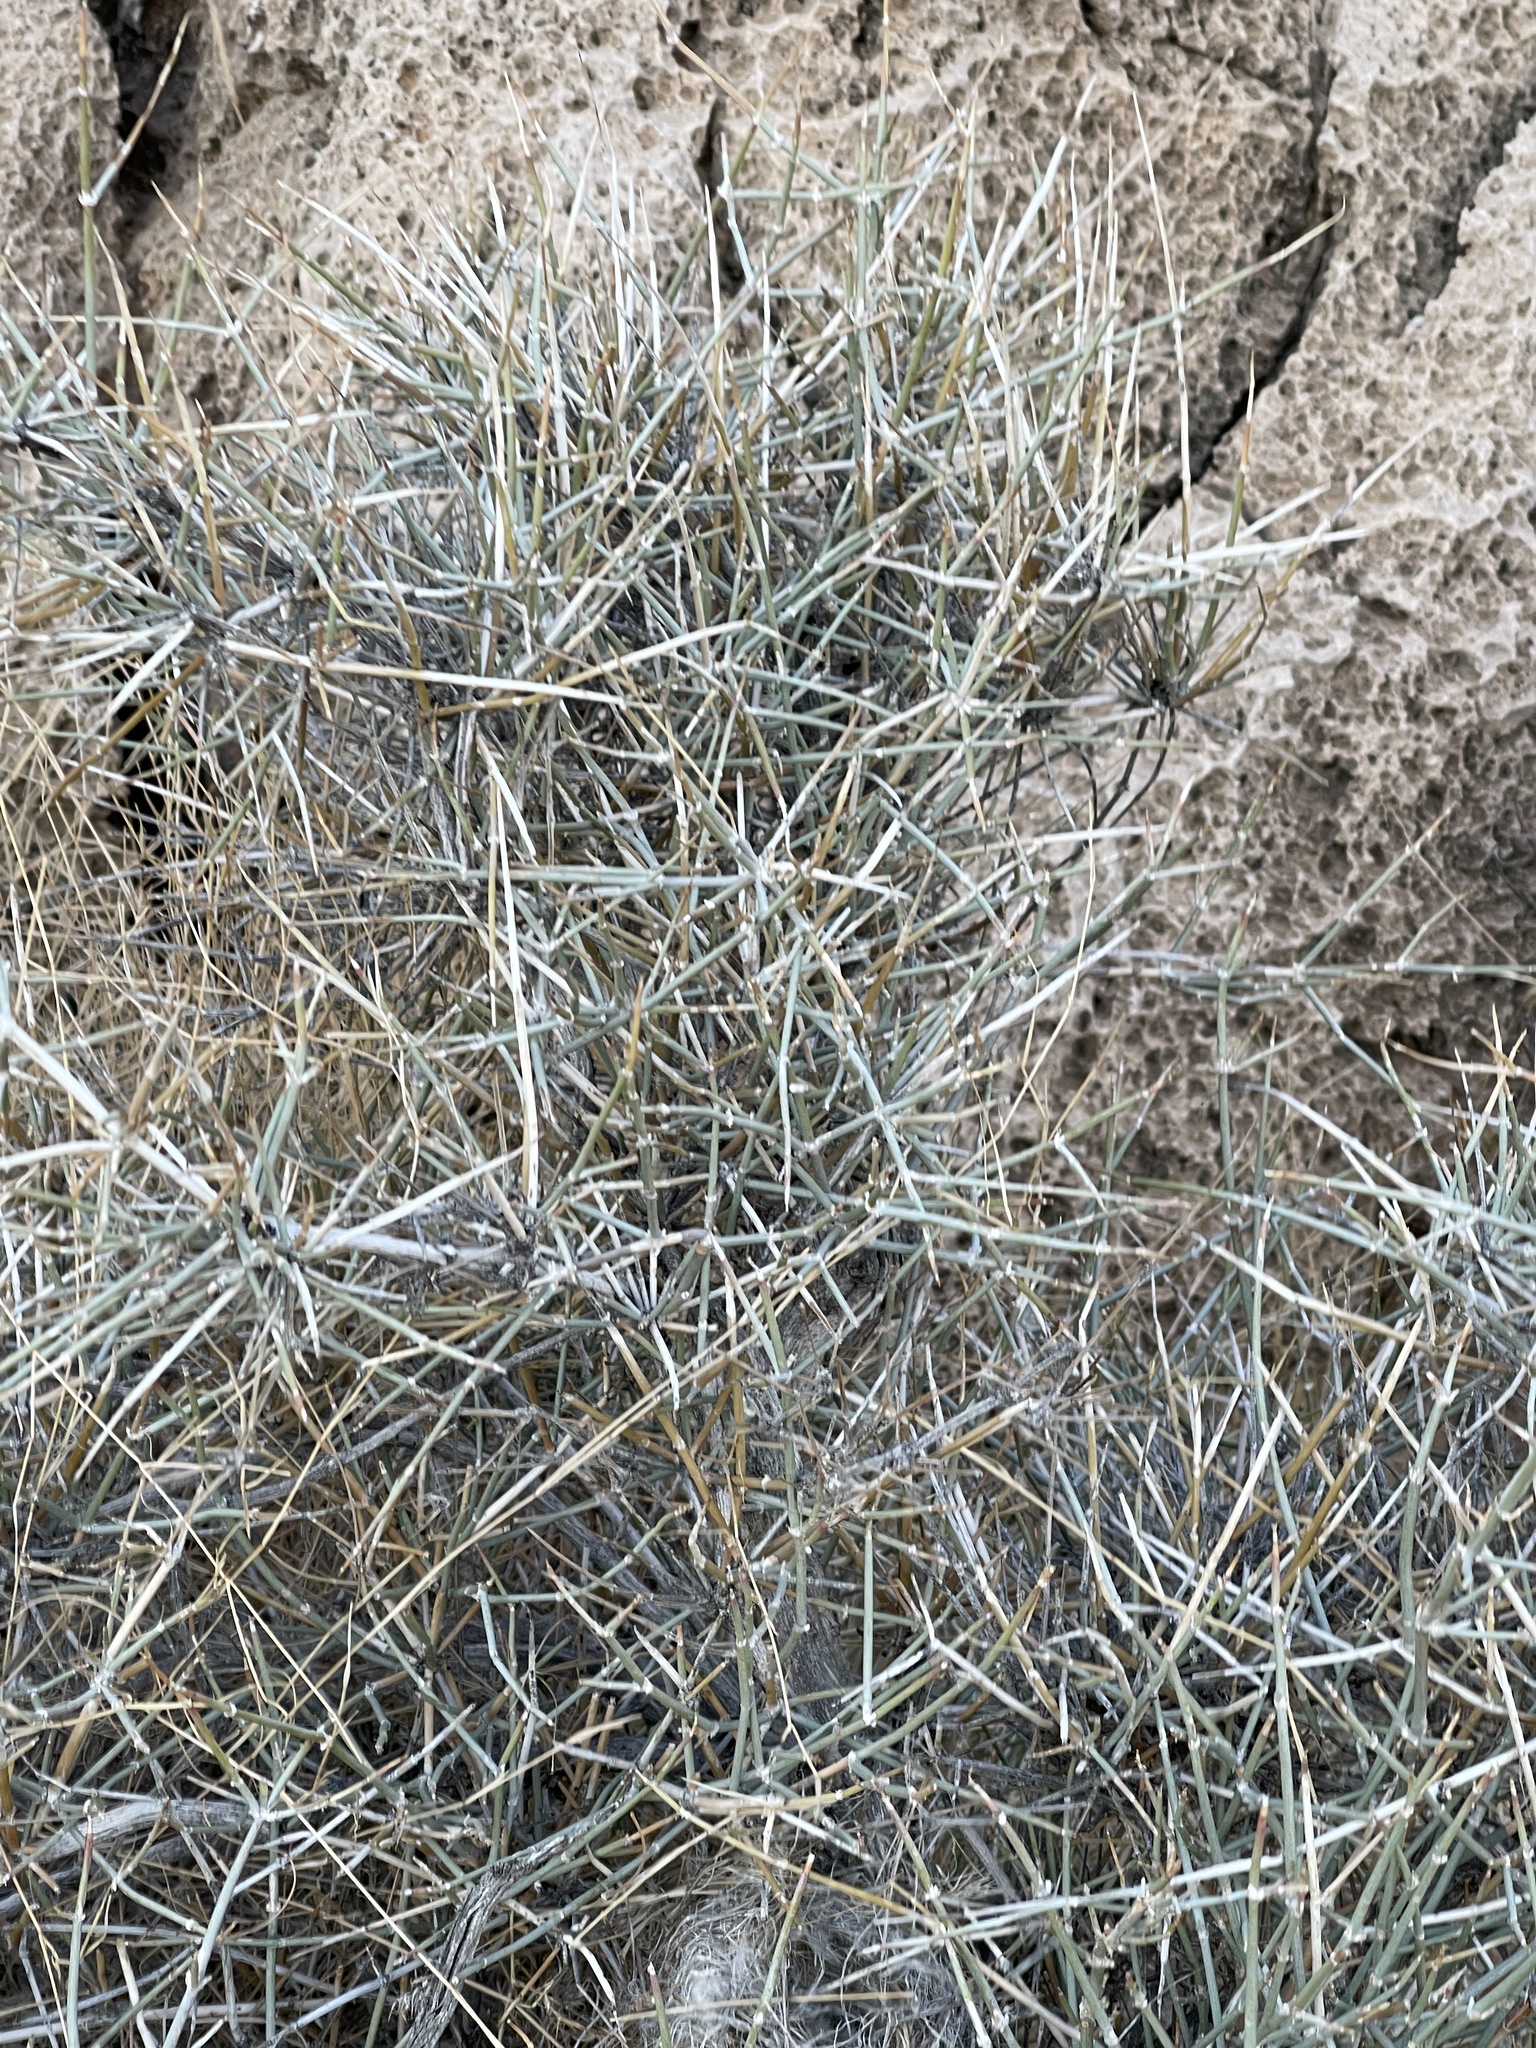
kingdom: Plantae
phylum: Tracheophyta
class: Gnetopsida
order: Ephedrales
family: Ephedraceae
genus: Ephedra
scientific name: Ephedra nevadensis
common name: Gray ephedra
